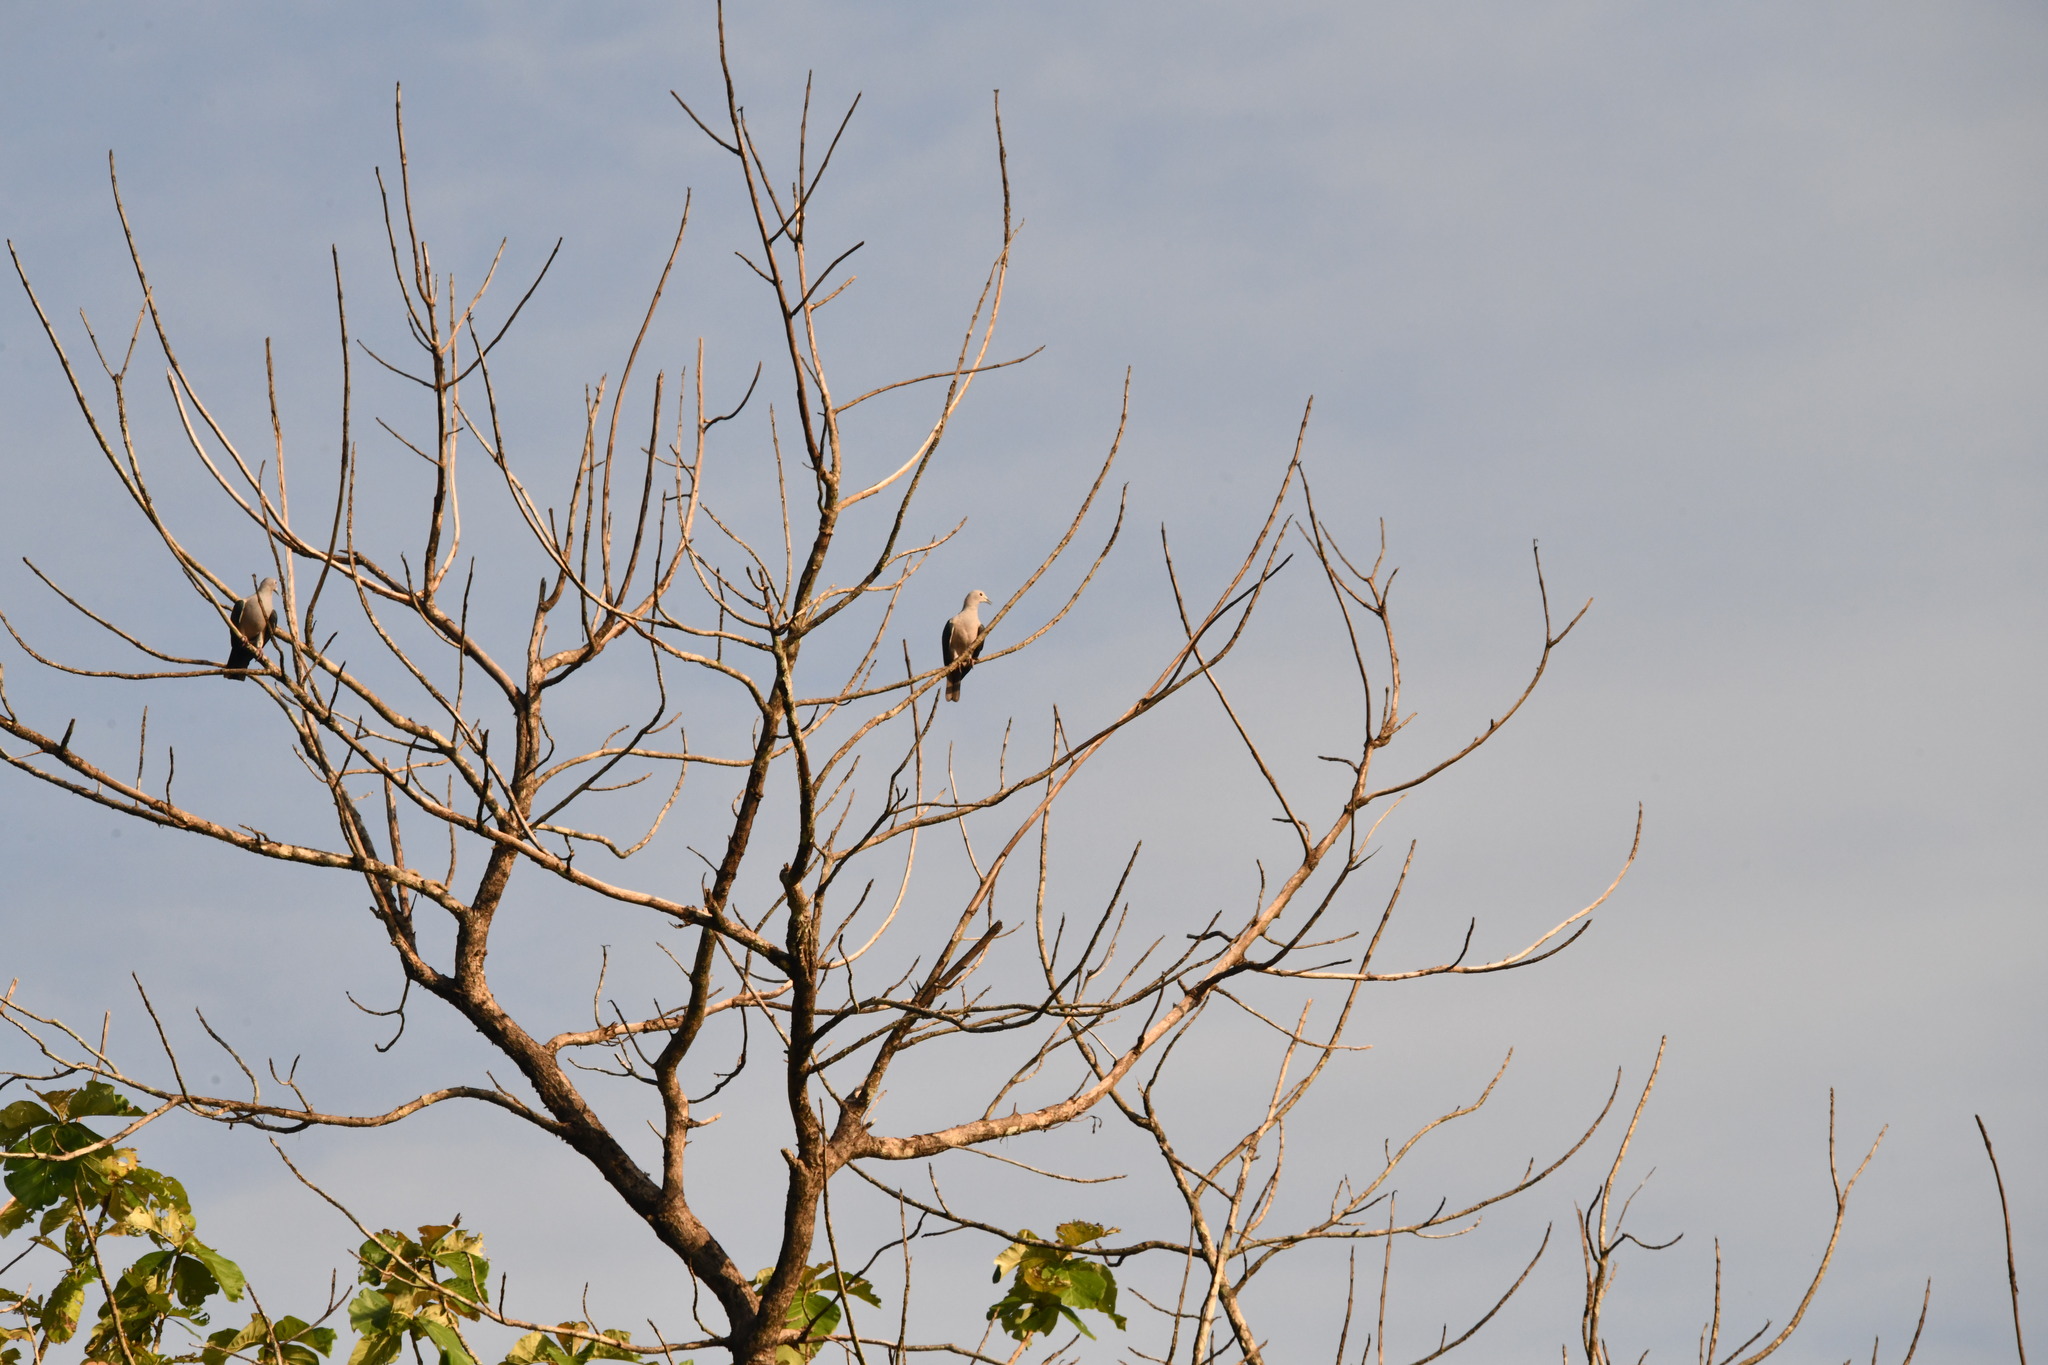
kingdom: Animalia
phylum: Chordata
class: Aves
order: Columbiformes
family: Columbidae
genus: Ducula
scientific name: Ducula aenea
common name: Green imperial pigeon
